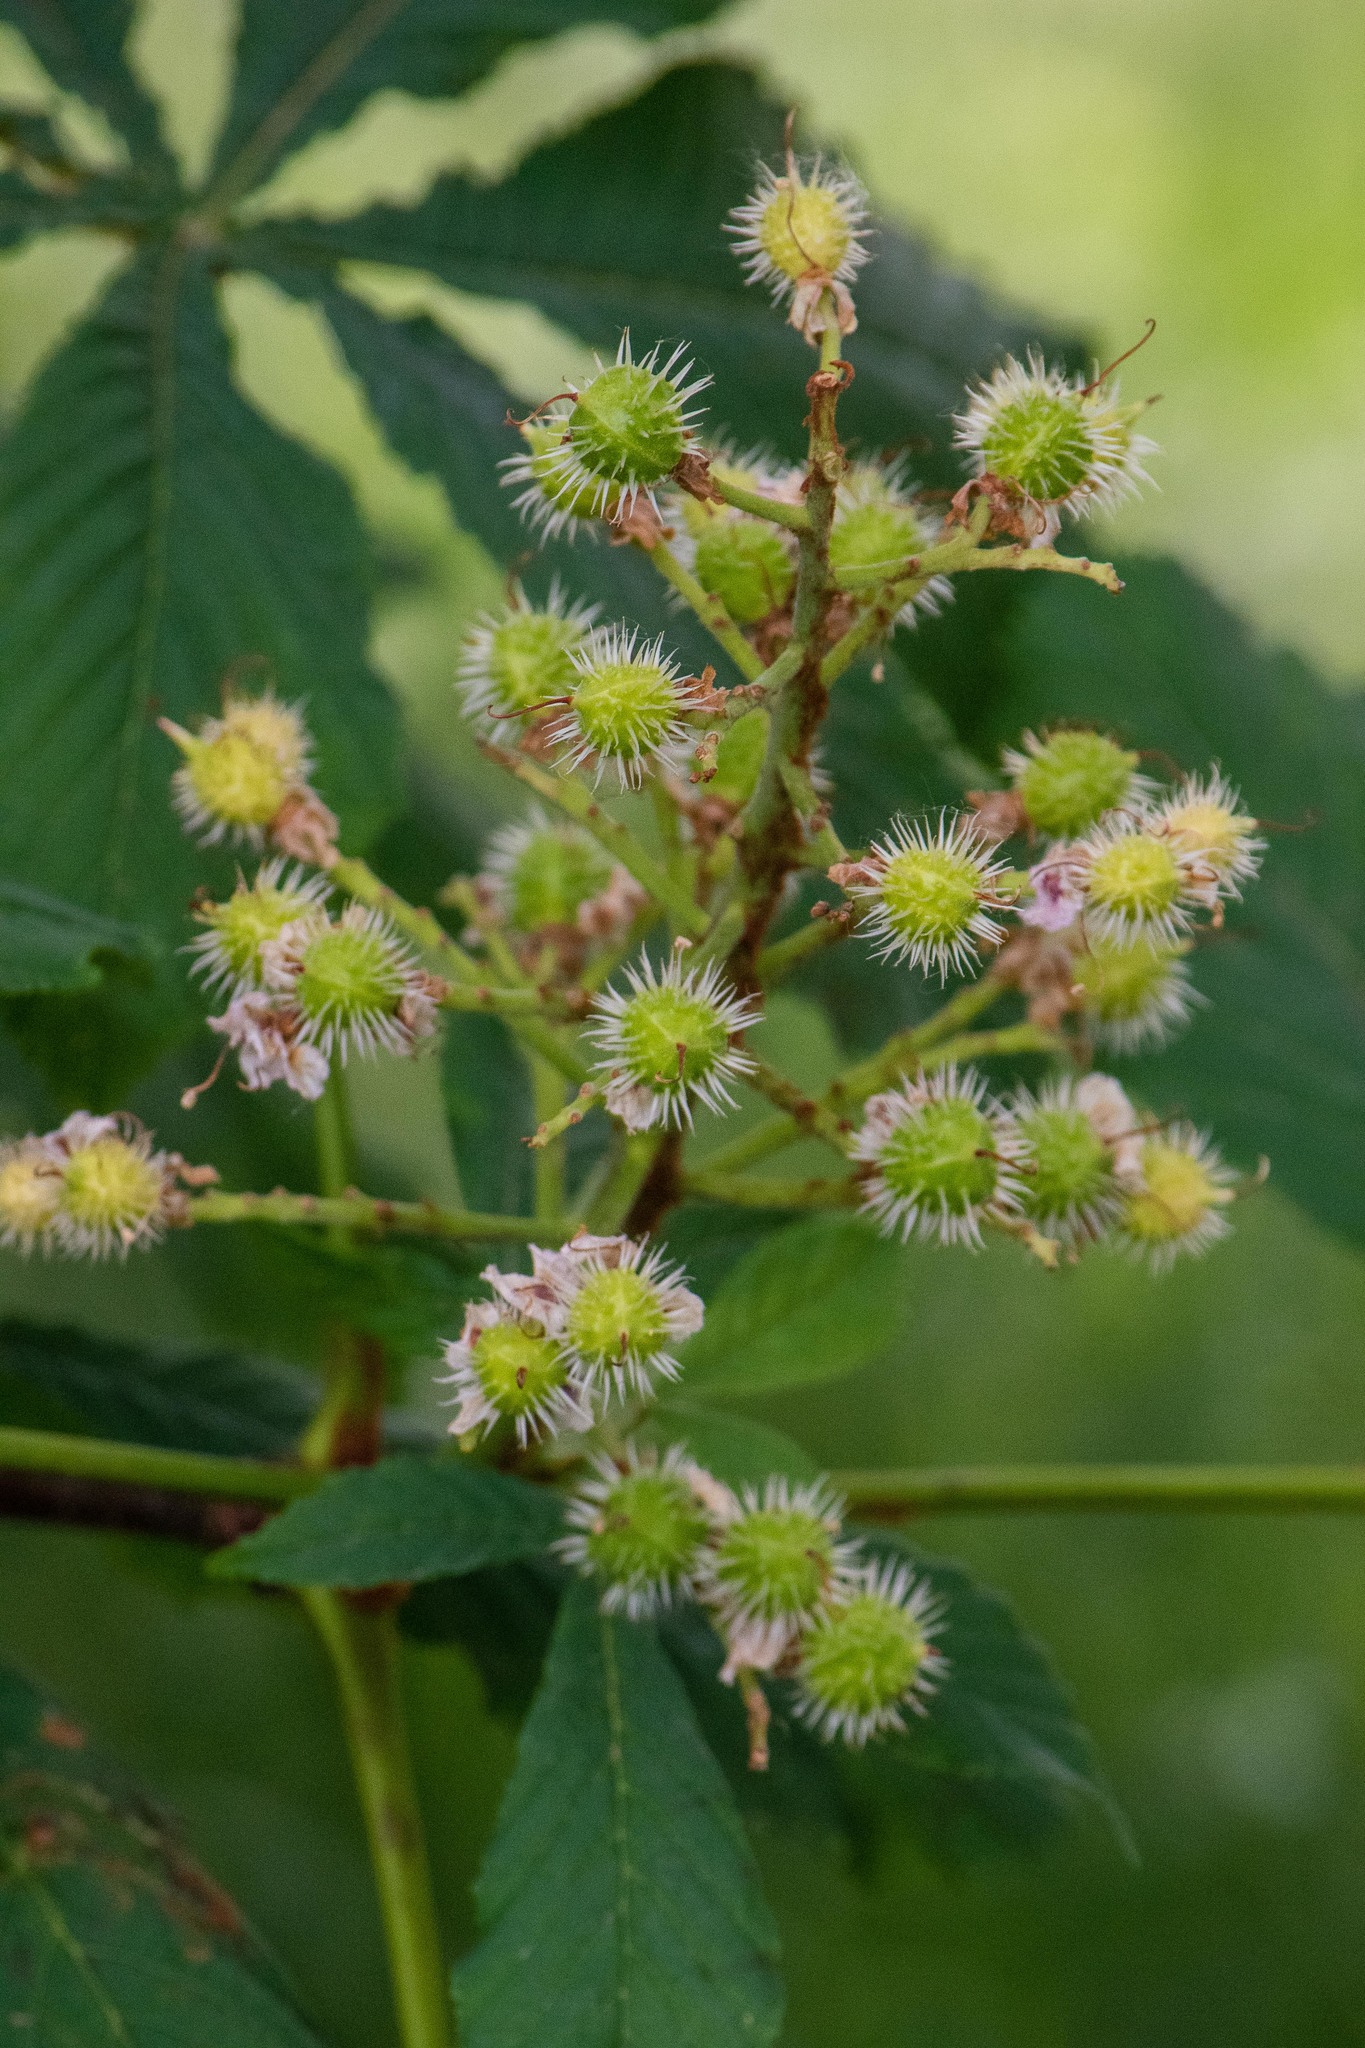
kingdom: Plantae
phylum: Tracheophyta
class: Magnoliopsida
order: Sapindales
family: Sapindaceae
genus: Aesculus
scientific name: Aesculus hippocastanum
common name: Horse-chestnut
